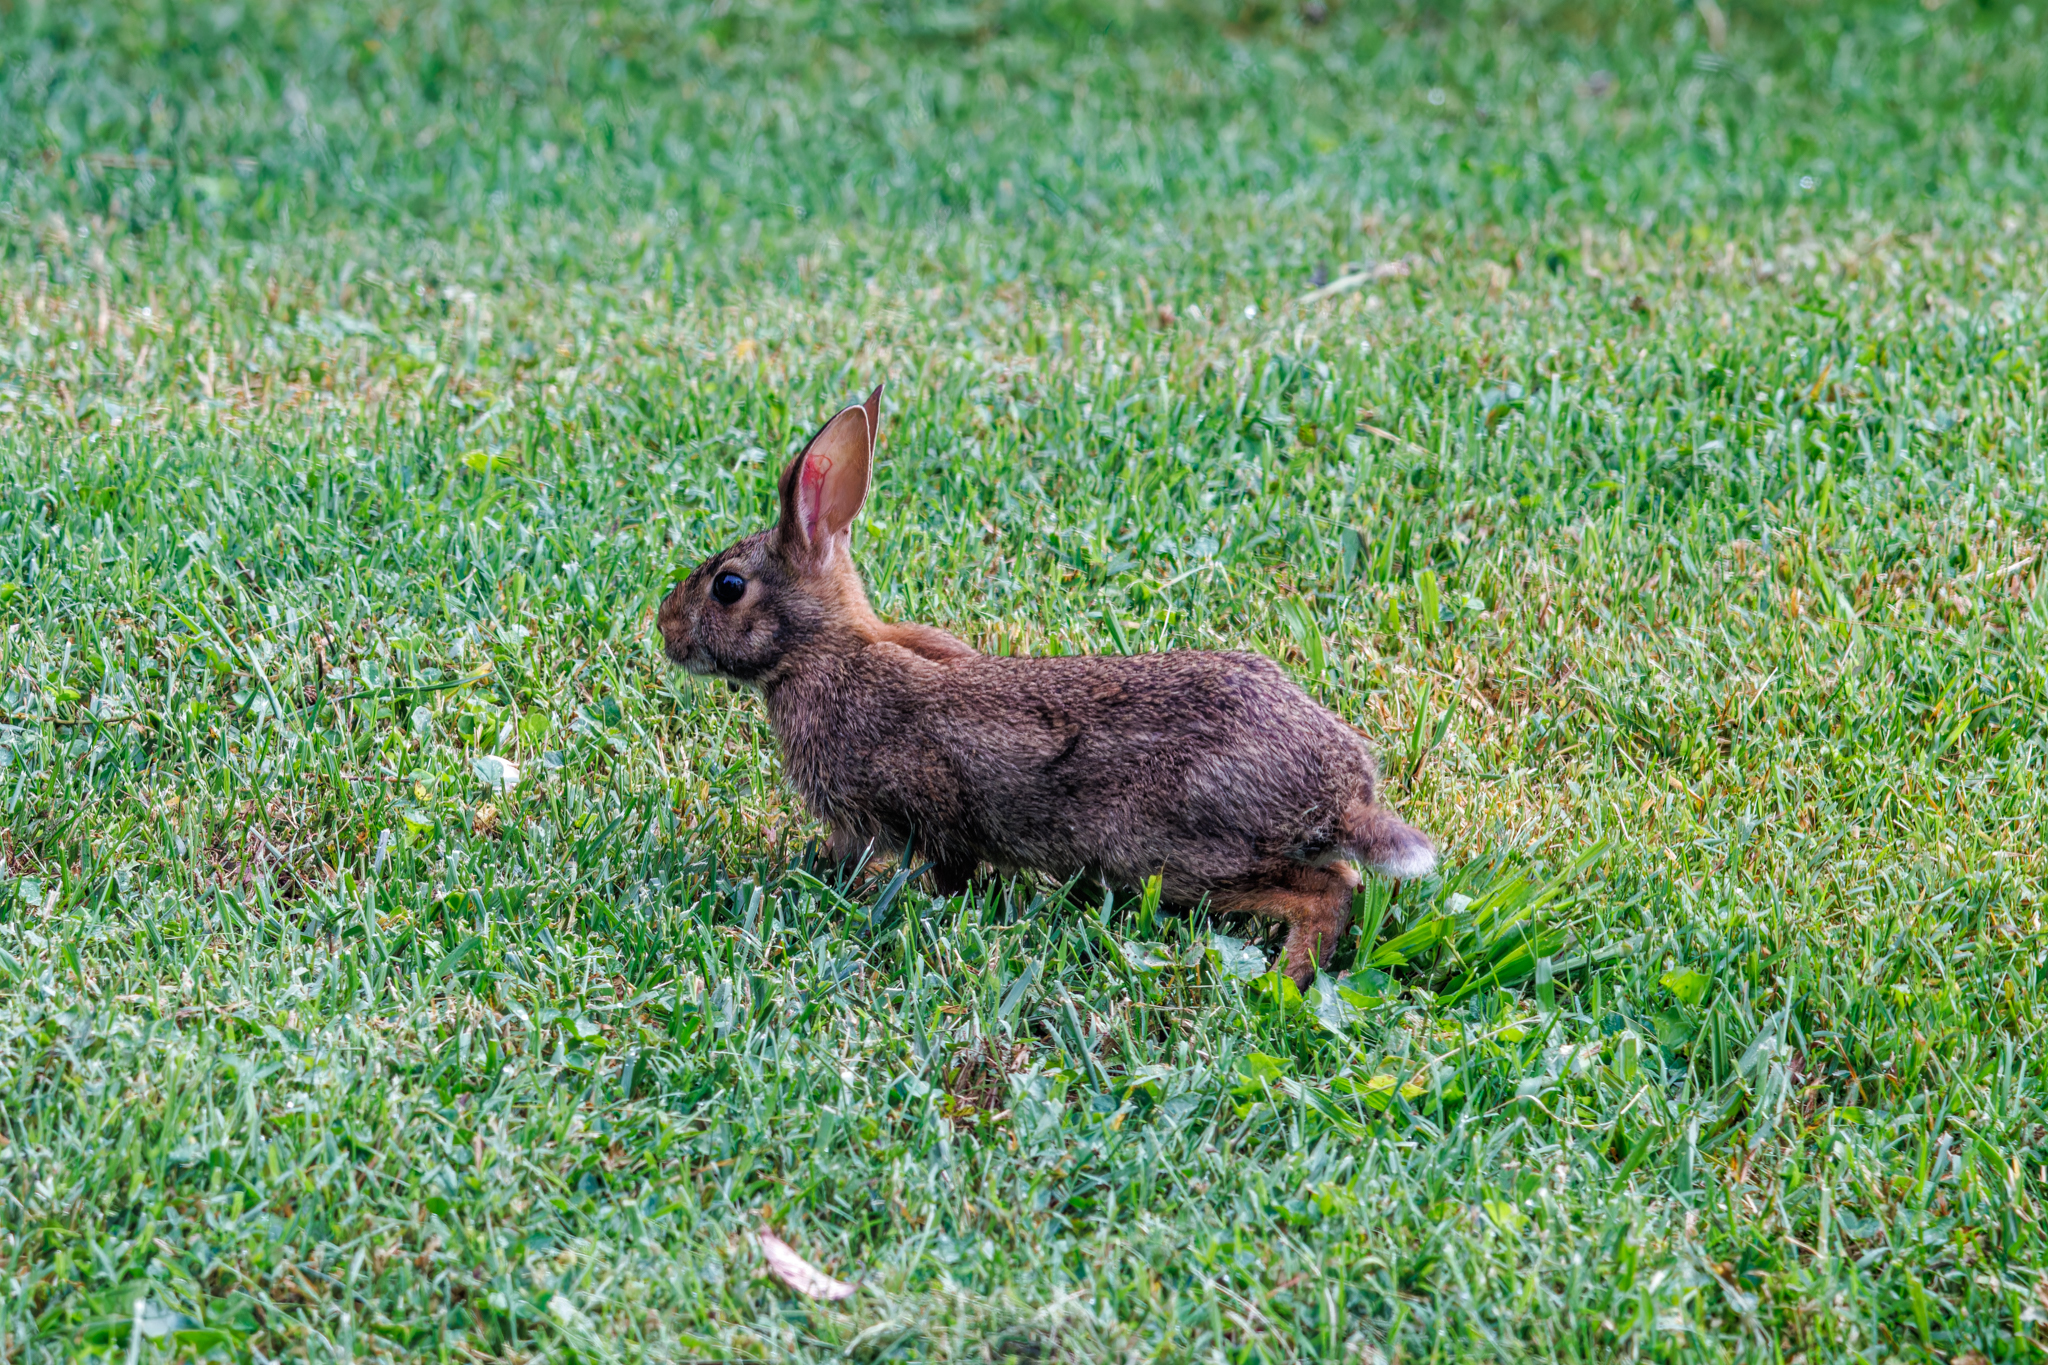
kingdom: Animalia
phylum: Chordata
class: Mammalia
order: Lagomorpha
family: Leporidae
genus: Sylvilagus
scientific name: Sylvilagus floridanus
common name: Eastern cottontail
